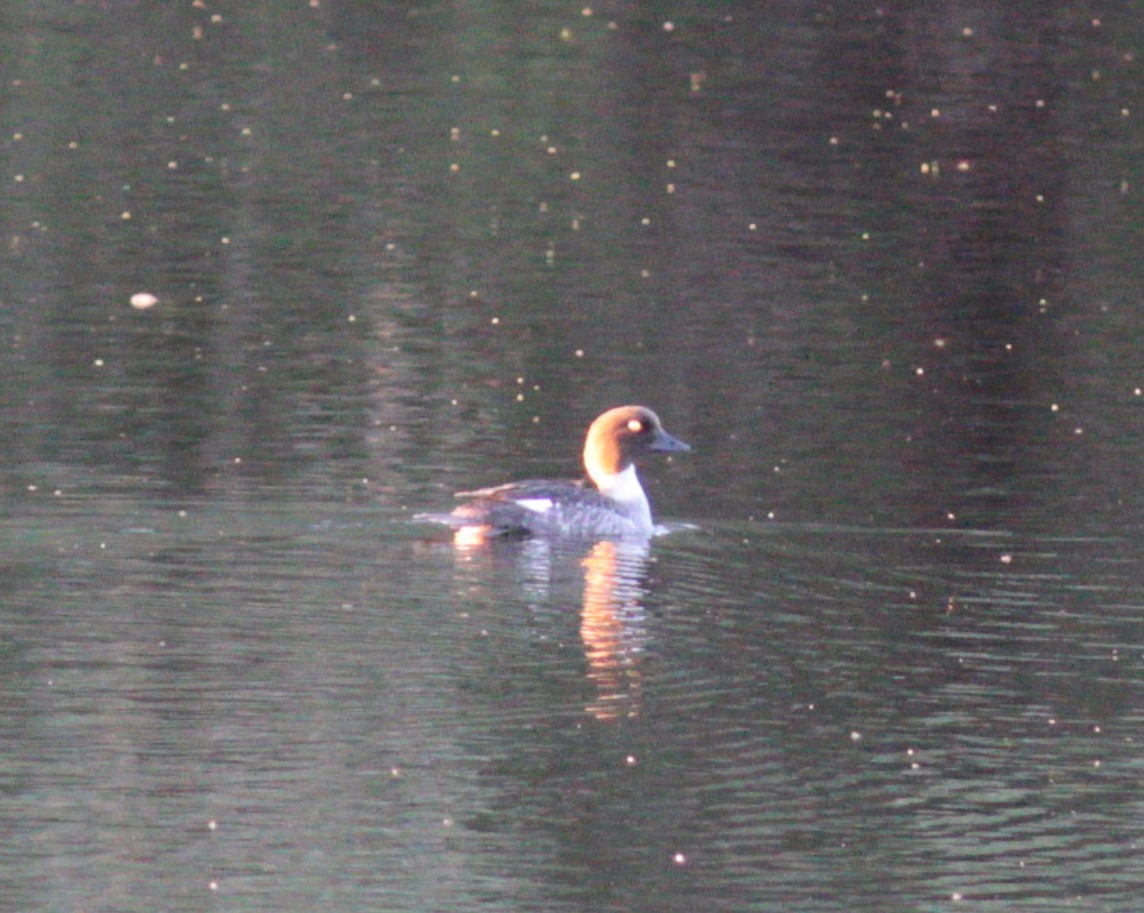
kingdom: Animalia
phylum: Chordata
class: Aves
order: Anseriformes
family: Anatidae
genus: Bucephala
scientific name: Bucephala clangula
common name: Common goldeneye
